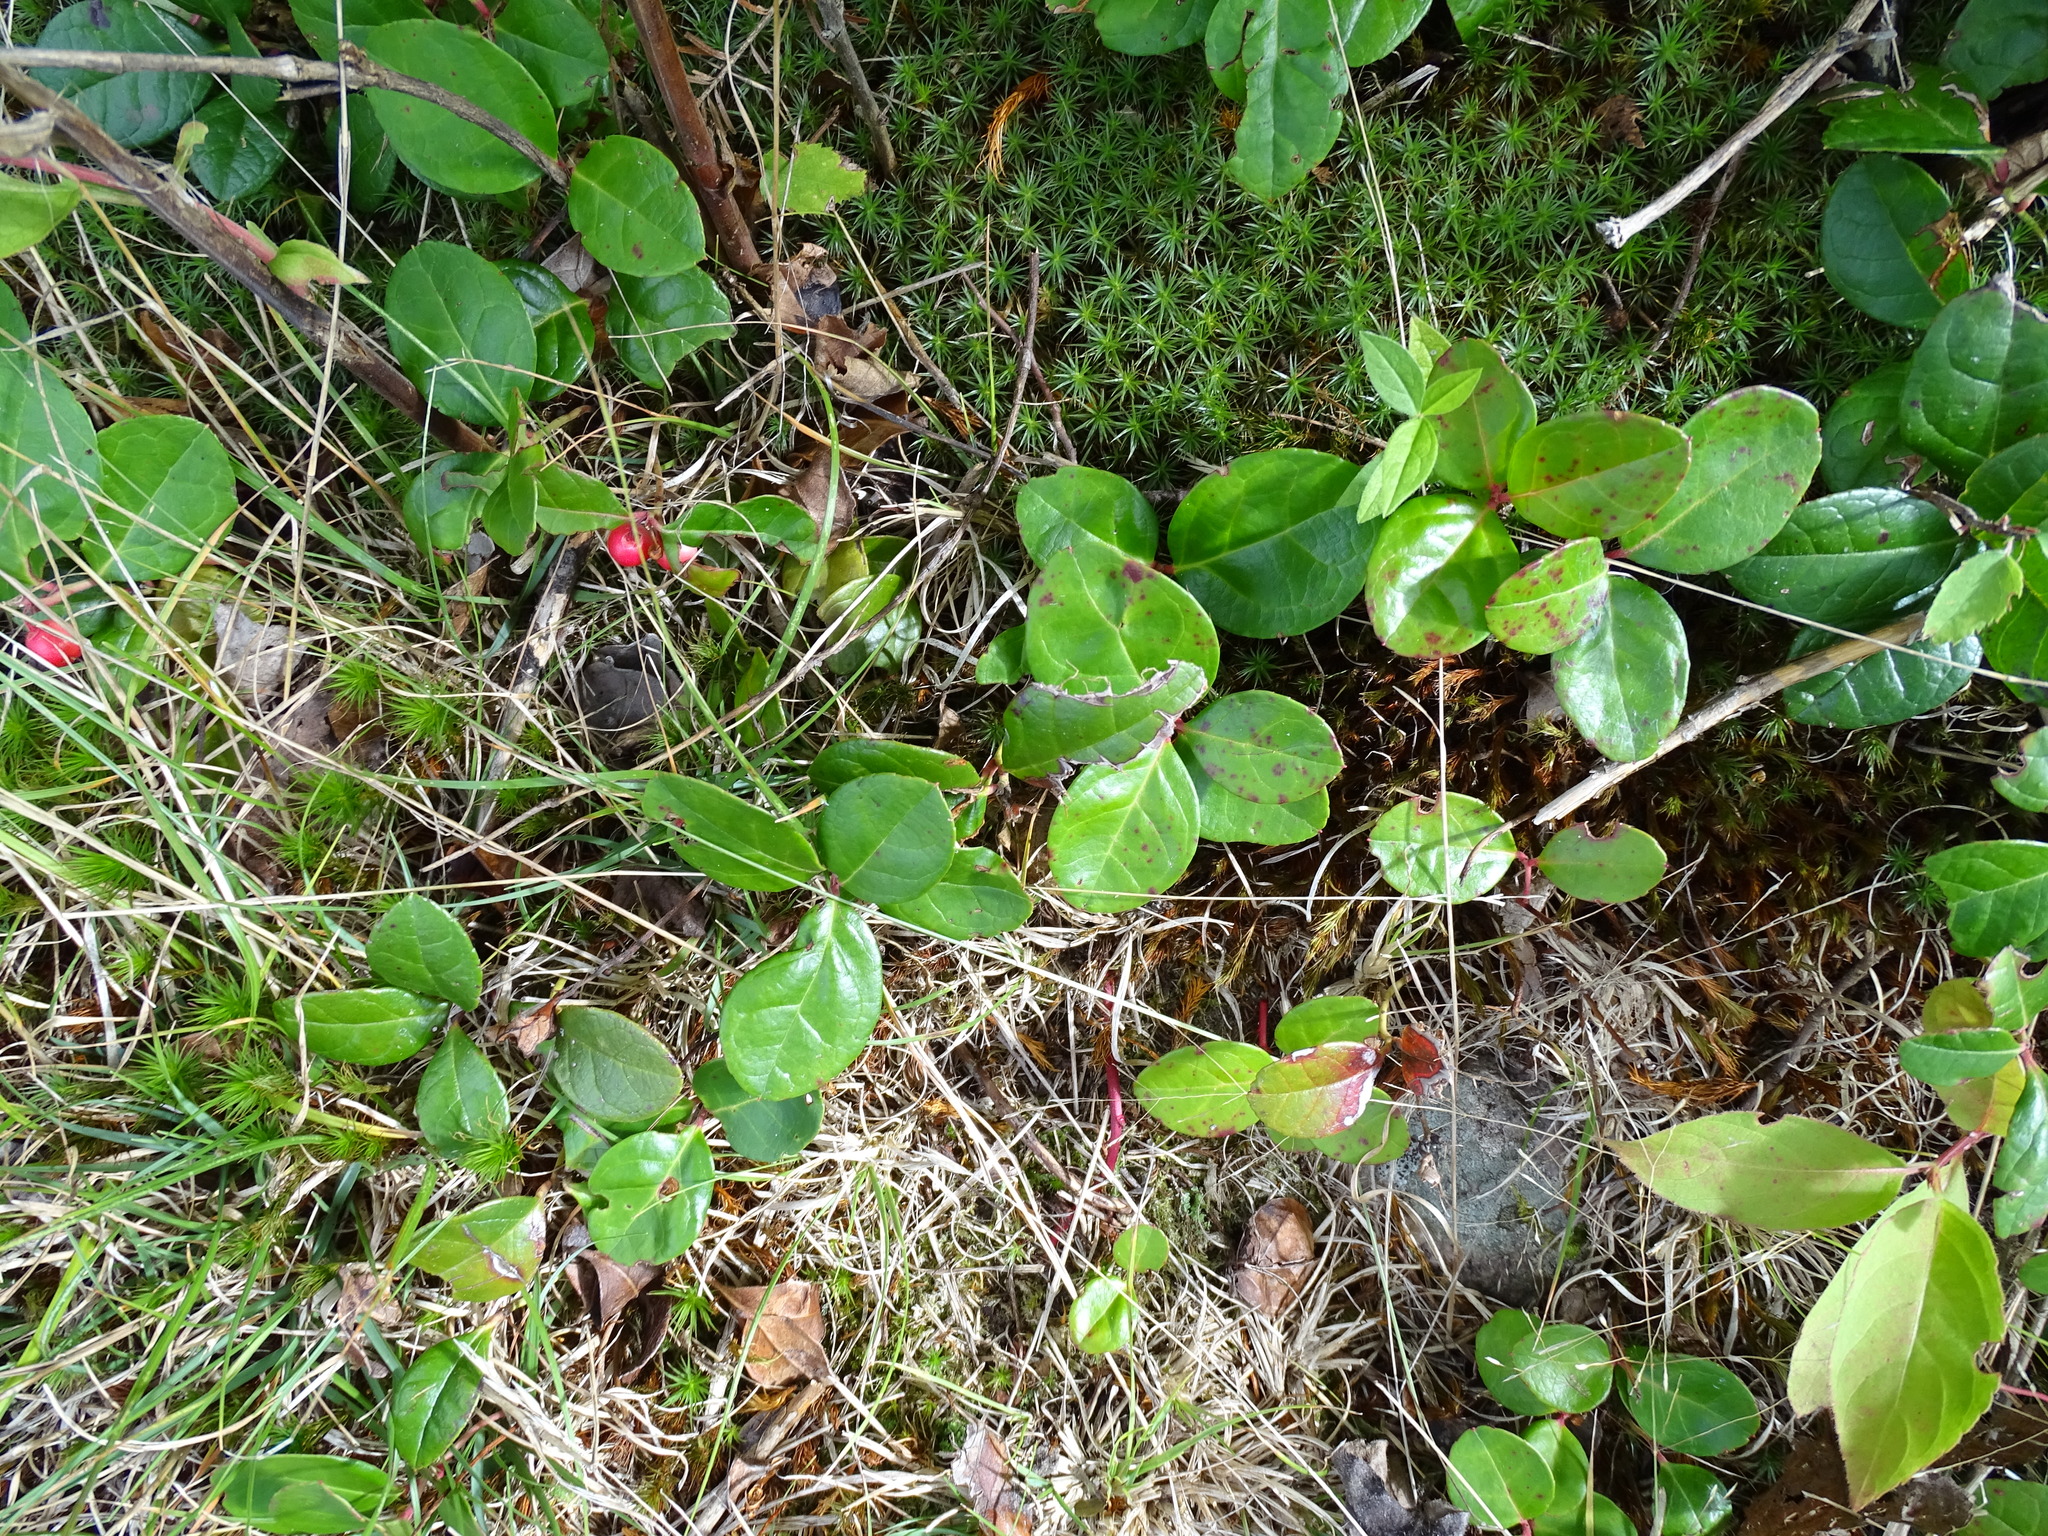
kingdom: Plantae
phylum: Tracheophyta
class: Magnoliopsida
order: Ericales
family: Ericaceae
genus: Gaultheria
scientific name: Gaultheria procumbens
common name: Checkerberry
